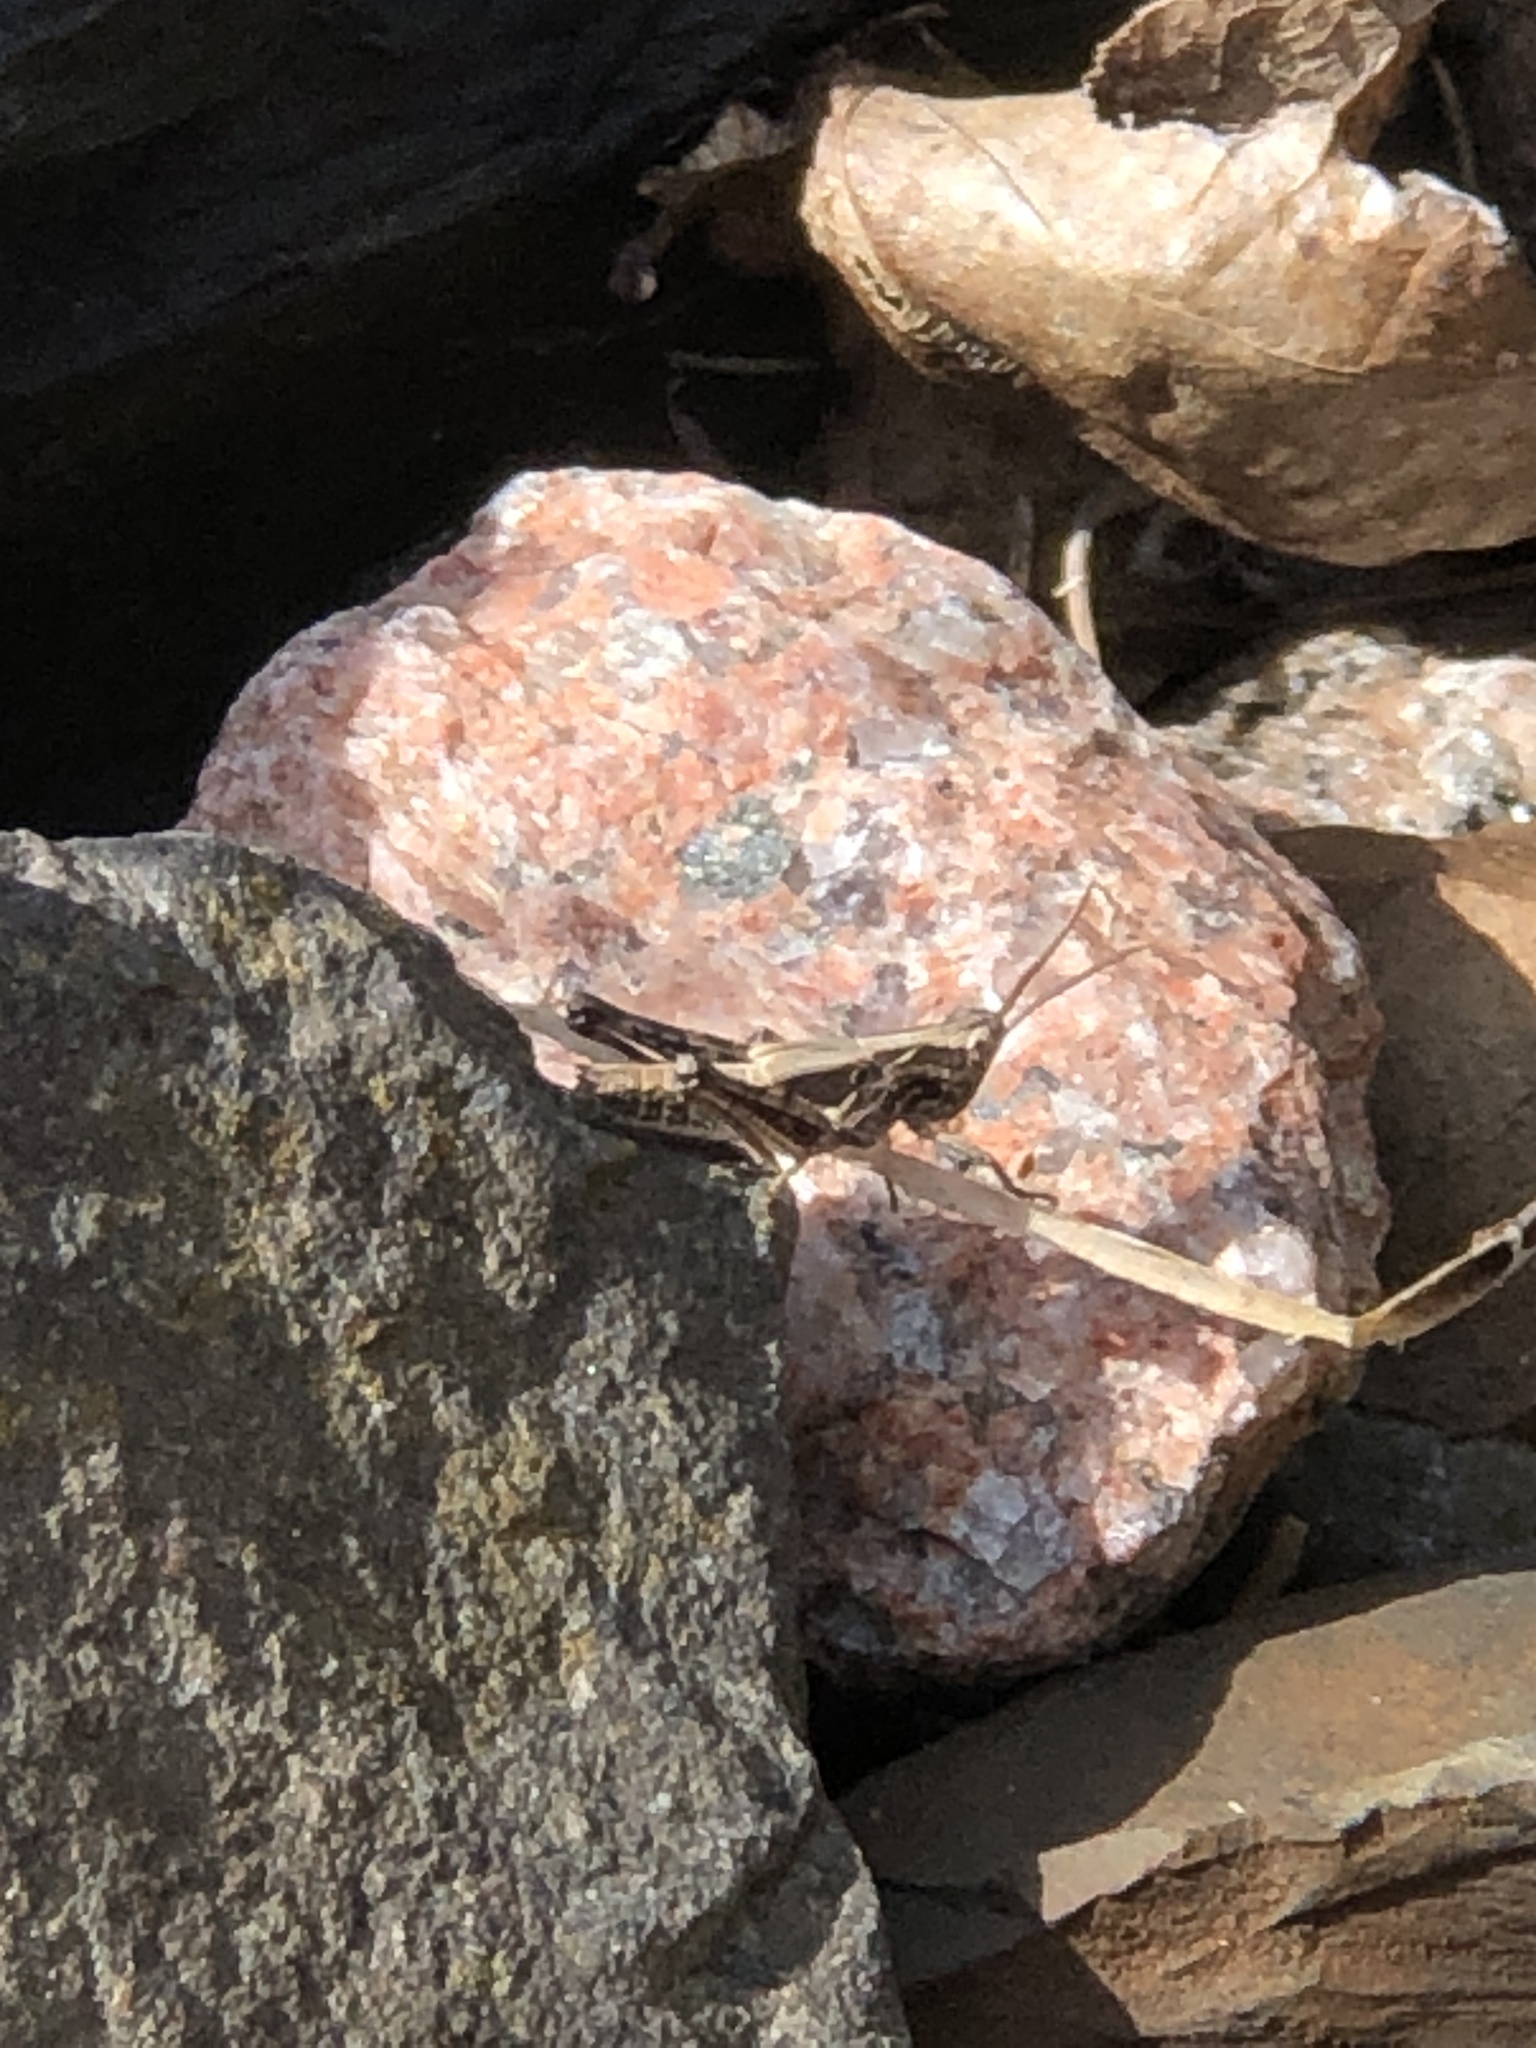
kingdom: Animalia
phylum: Arthropoda
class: Insecta
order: Orthoptera
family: Acrididae
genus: Chorthippus
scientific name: Chorthippus brunneus
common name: Field grasshopper
